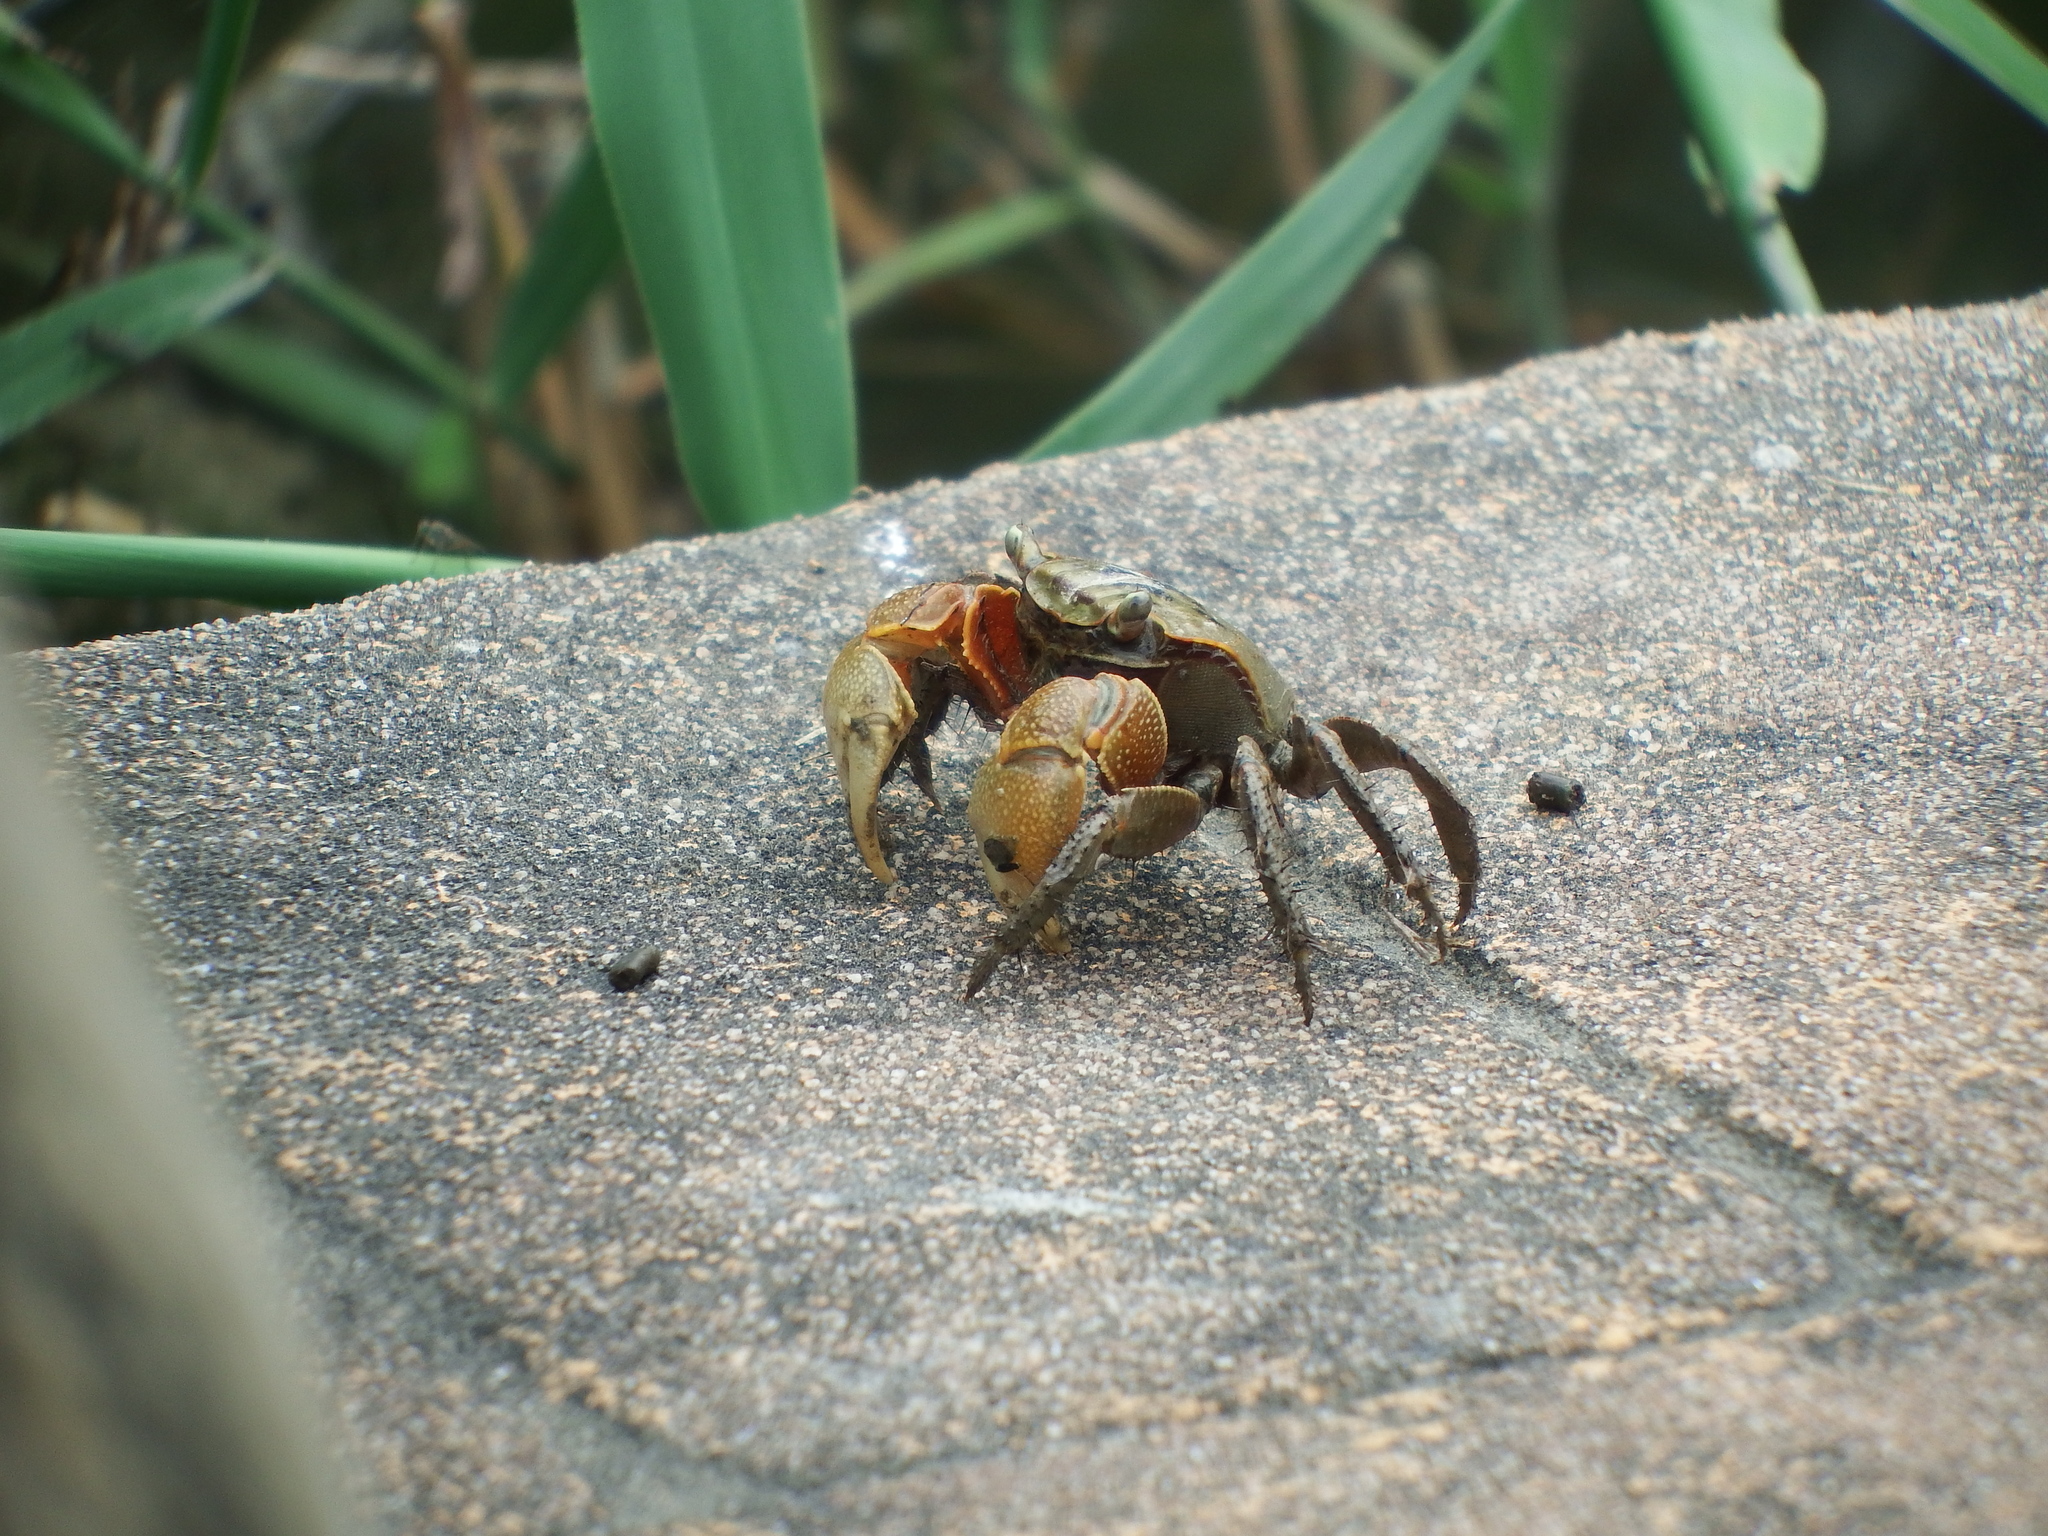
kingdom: Animalia
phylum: Arthropoda
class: Malacostraca
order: Decapoda
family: Sesarmidae
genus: Orisarma
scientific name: Orisarma dehaani
